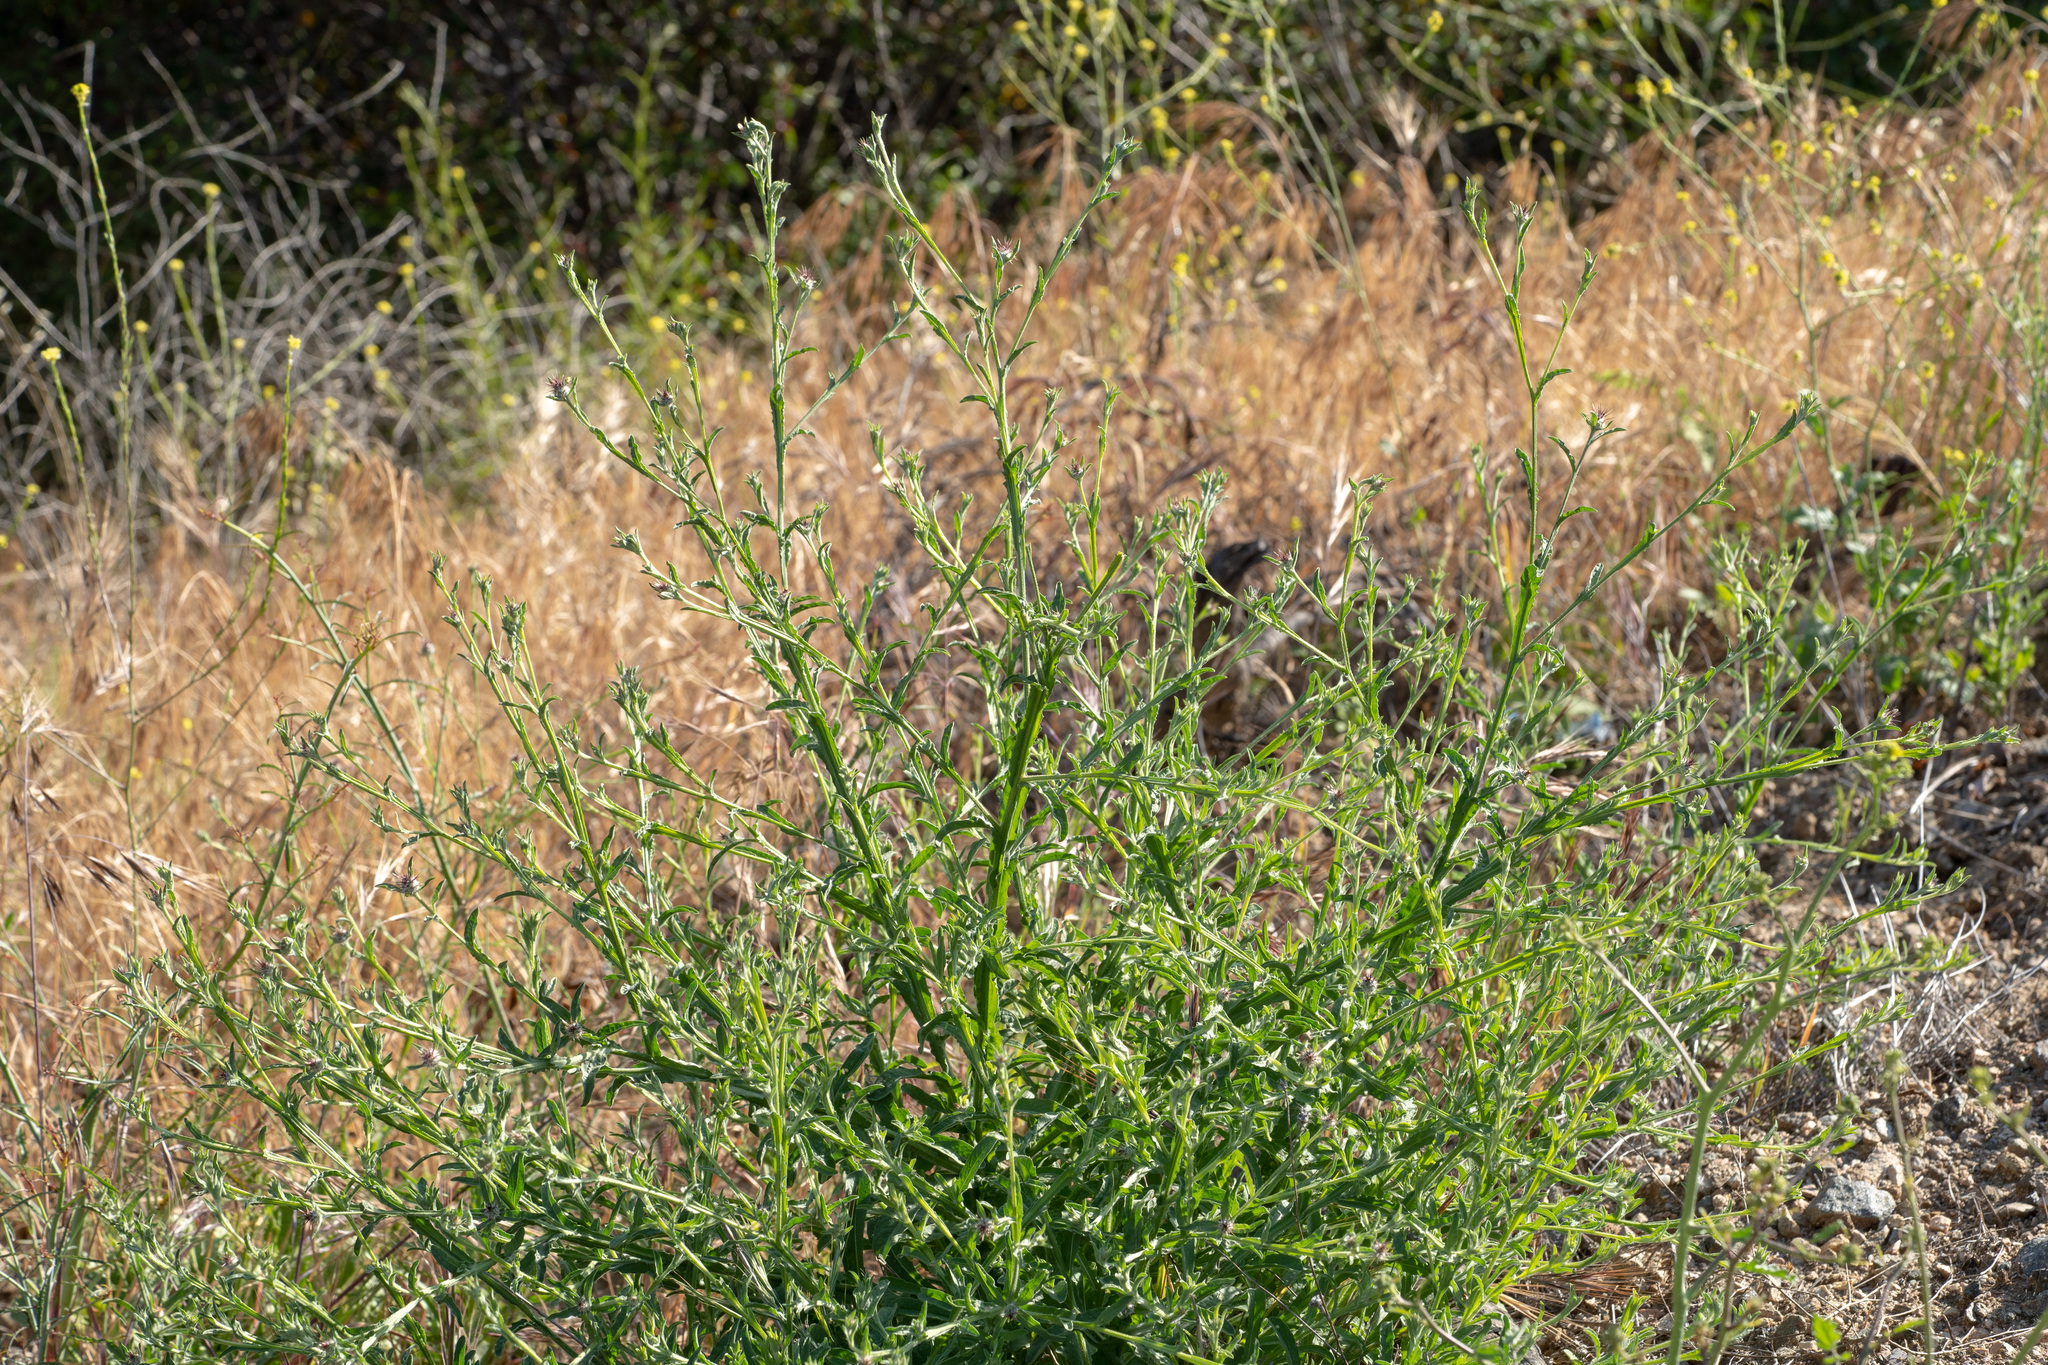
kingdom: Plantae
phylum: Tracheophyta
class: Magnoliopsida
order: Asterales
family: Asteraceae
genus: Centaurea
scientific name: Centaurea melitensis
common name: Maltese star-thistle
